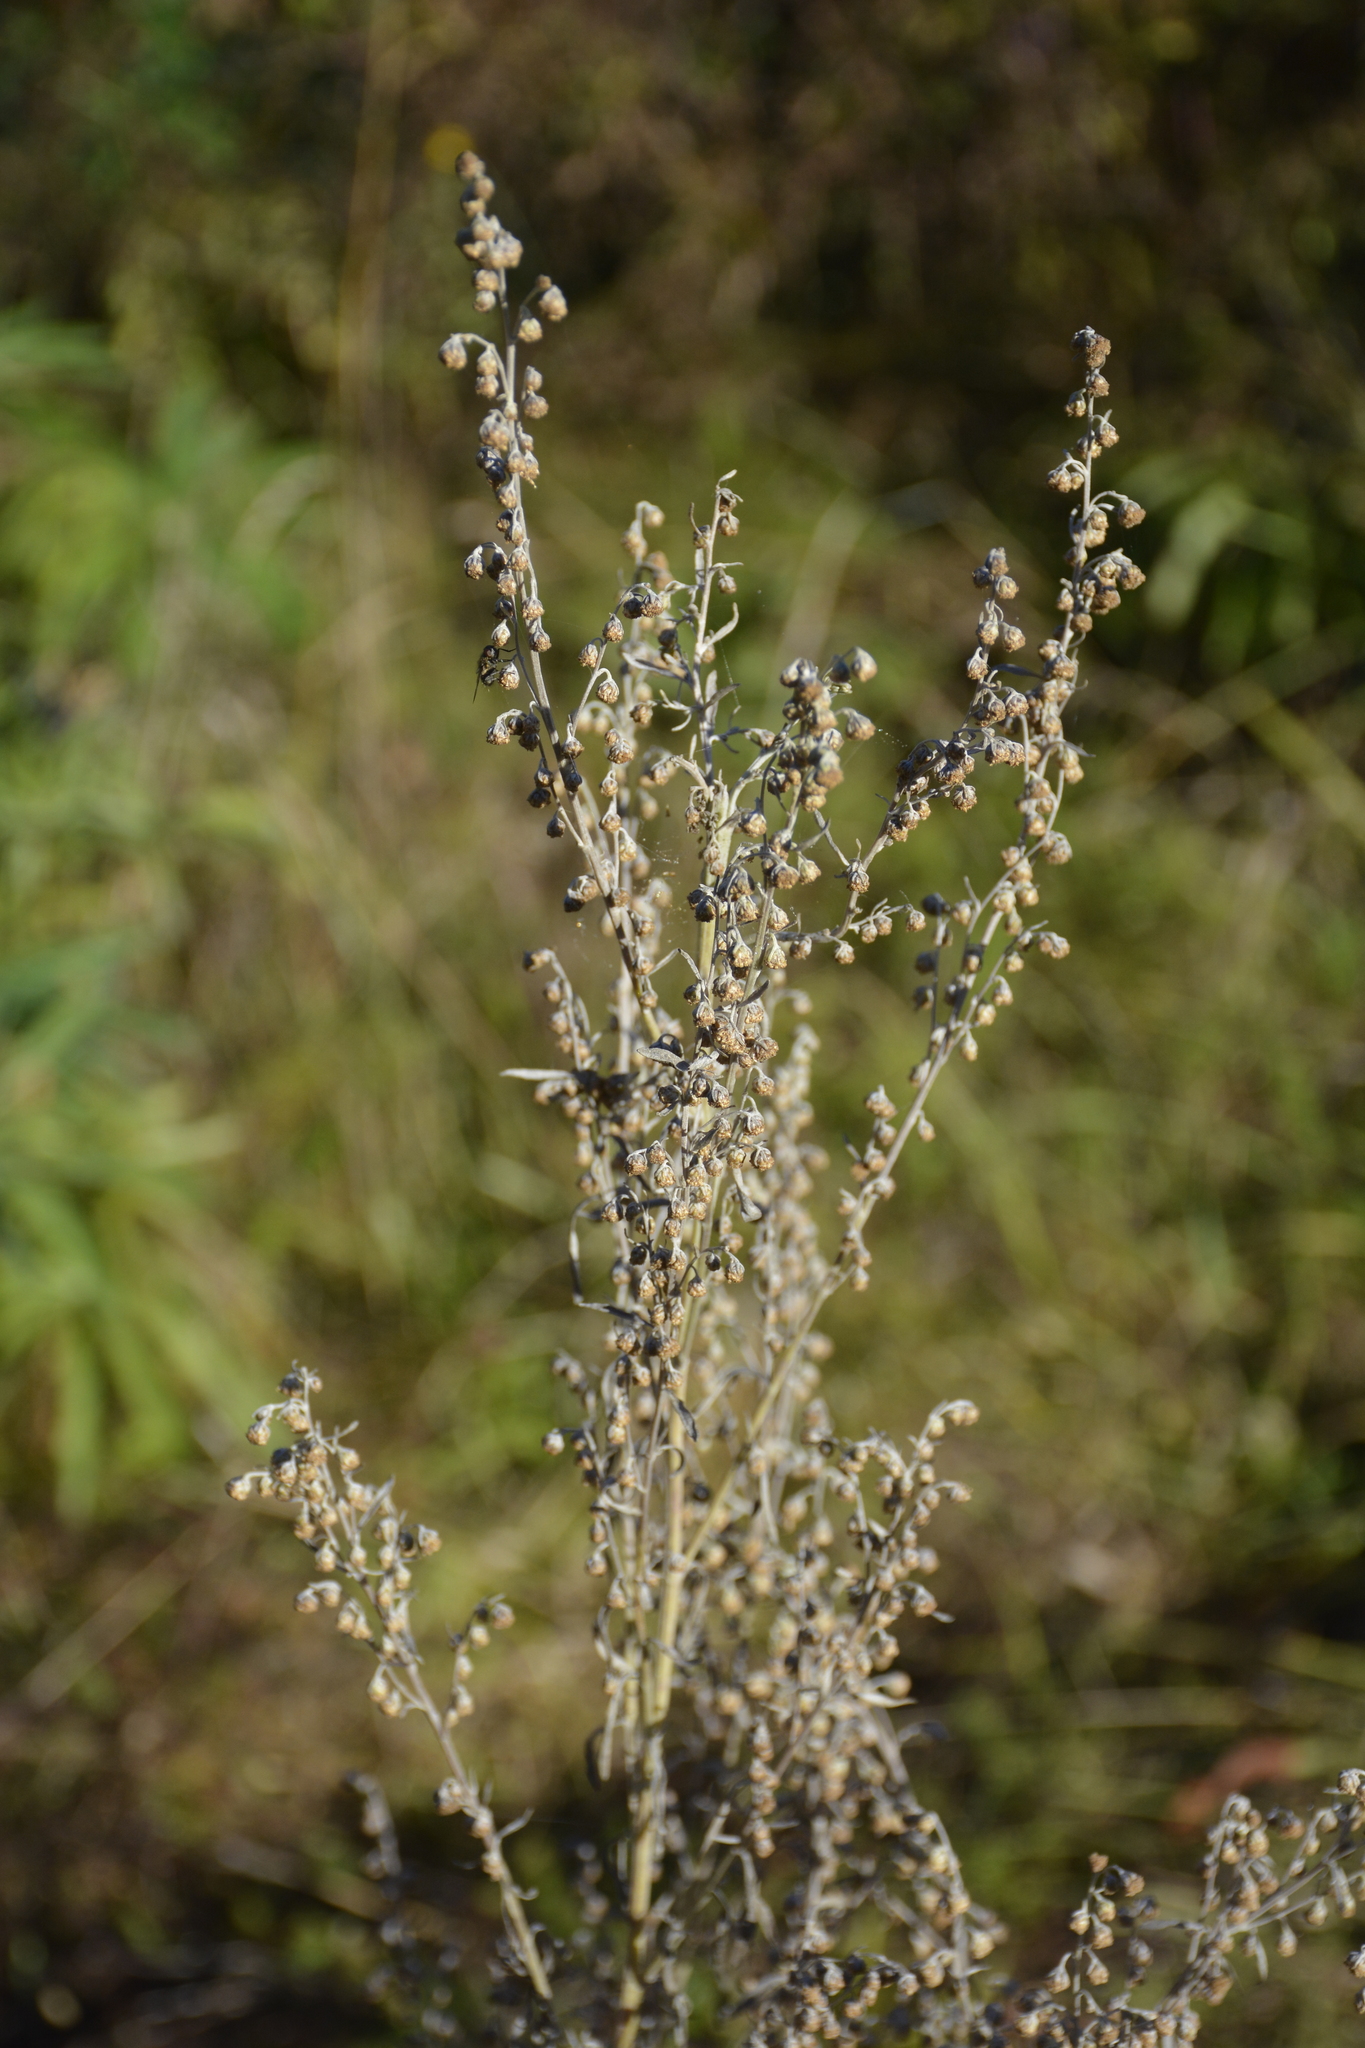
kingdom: Plantae
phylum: Tracheophyta
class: Magnoliopsida
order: Asterales
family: Asteraceae
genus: Artemisia
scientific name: Artemisia absinthium
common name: Wormwood
